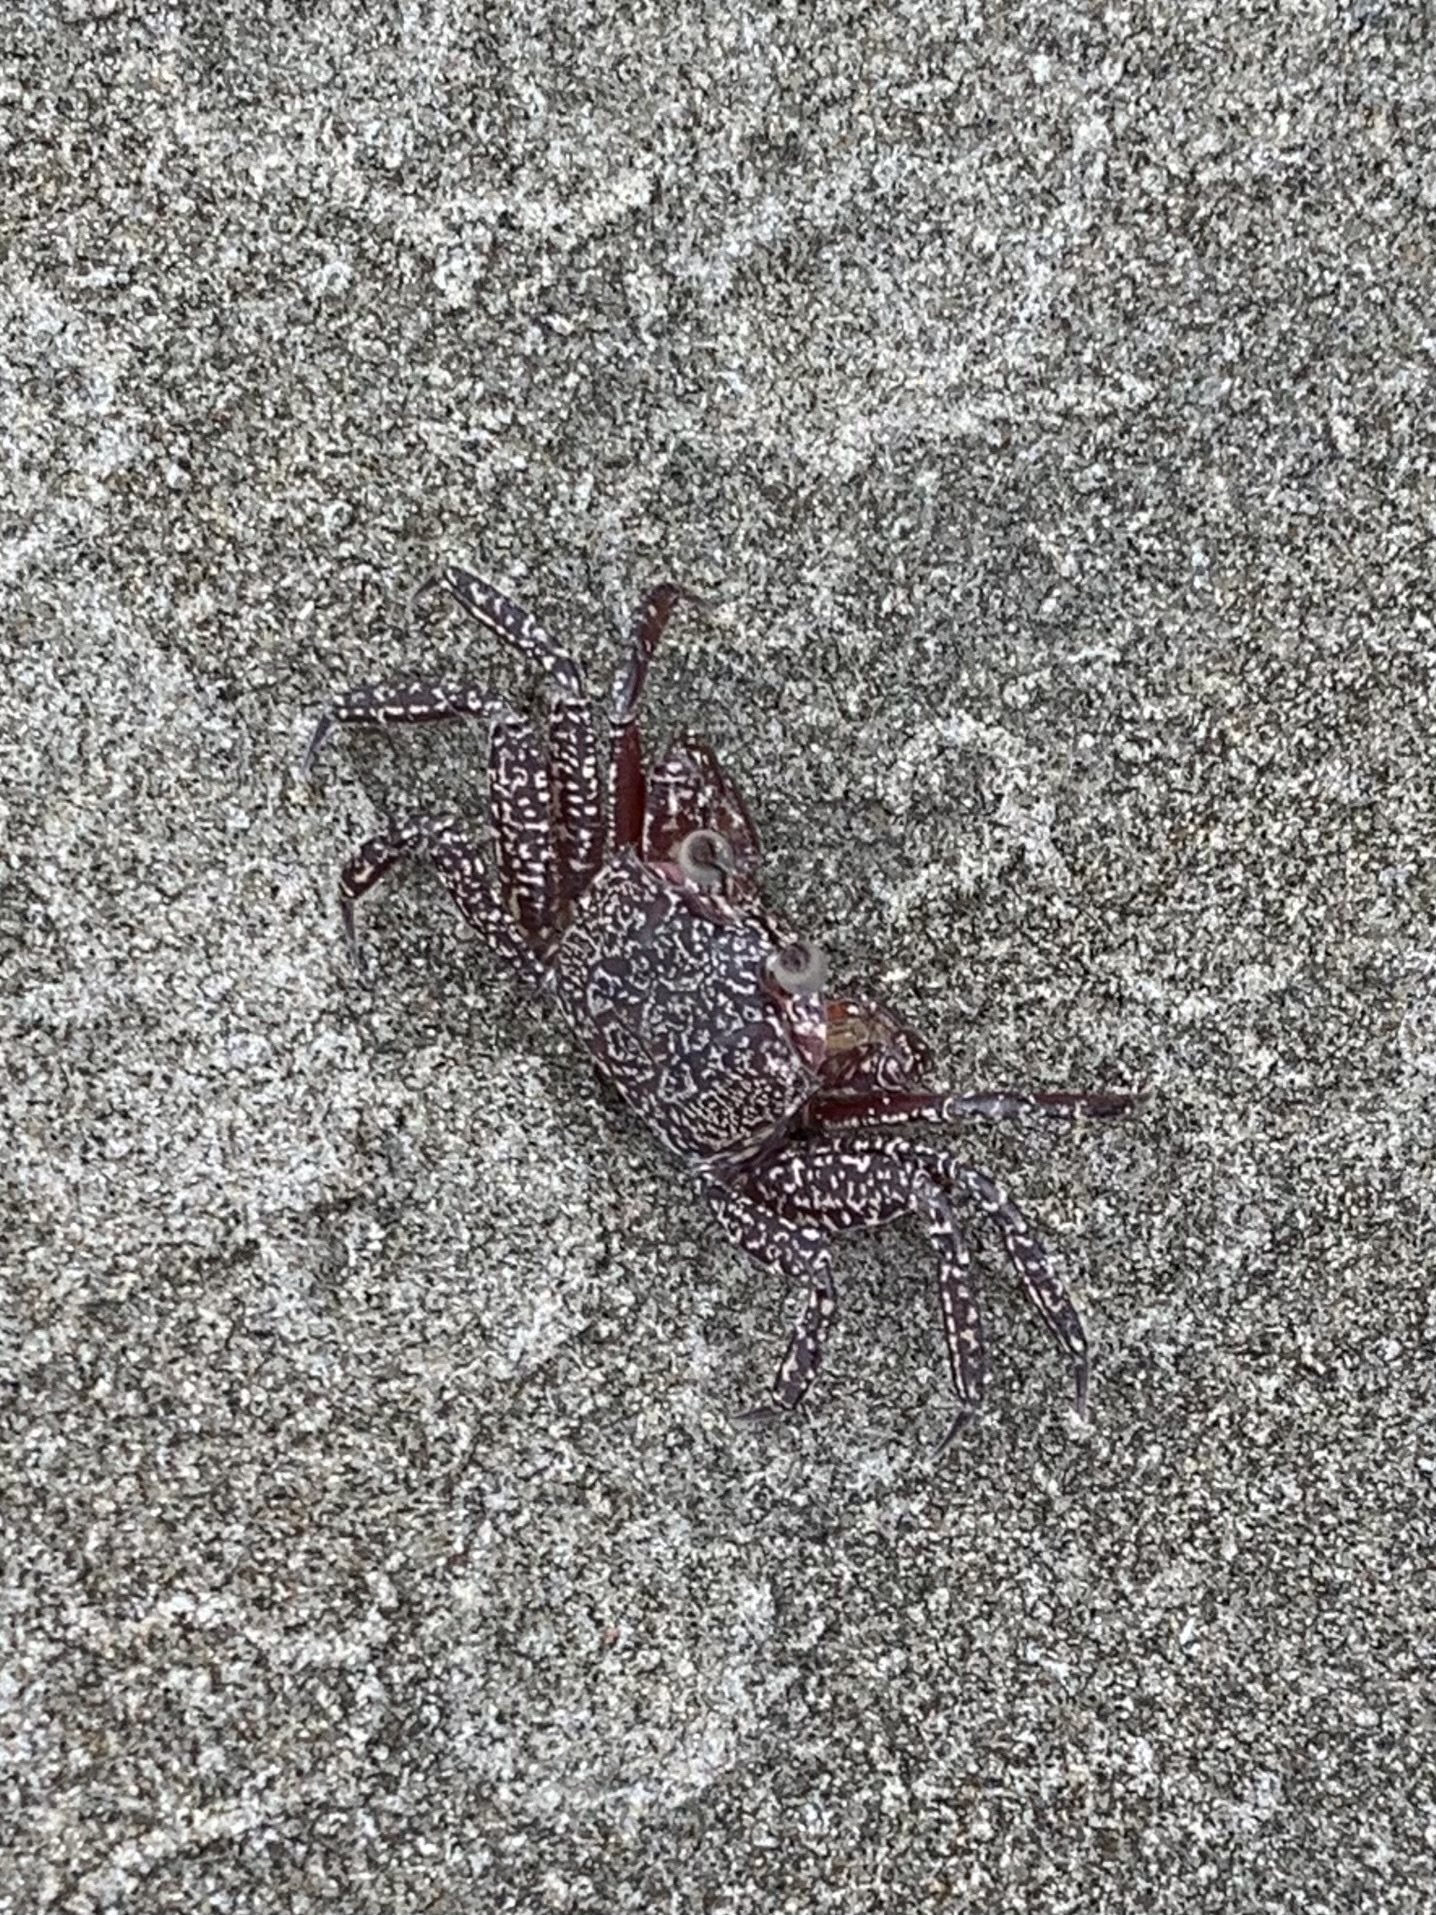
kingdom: Animalia
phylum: Arthropoda
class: Malacostraca
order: Decapoda
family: Ocypodidae
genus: Ocypode
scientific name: Ocypode gaudichaudii
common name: Pacific ghost crab
